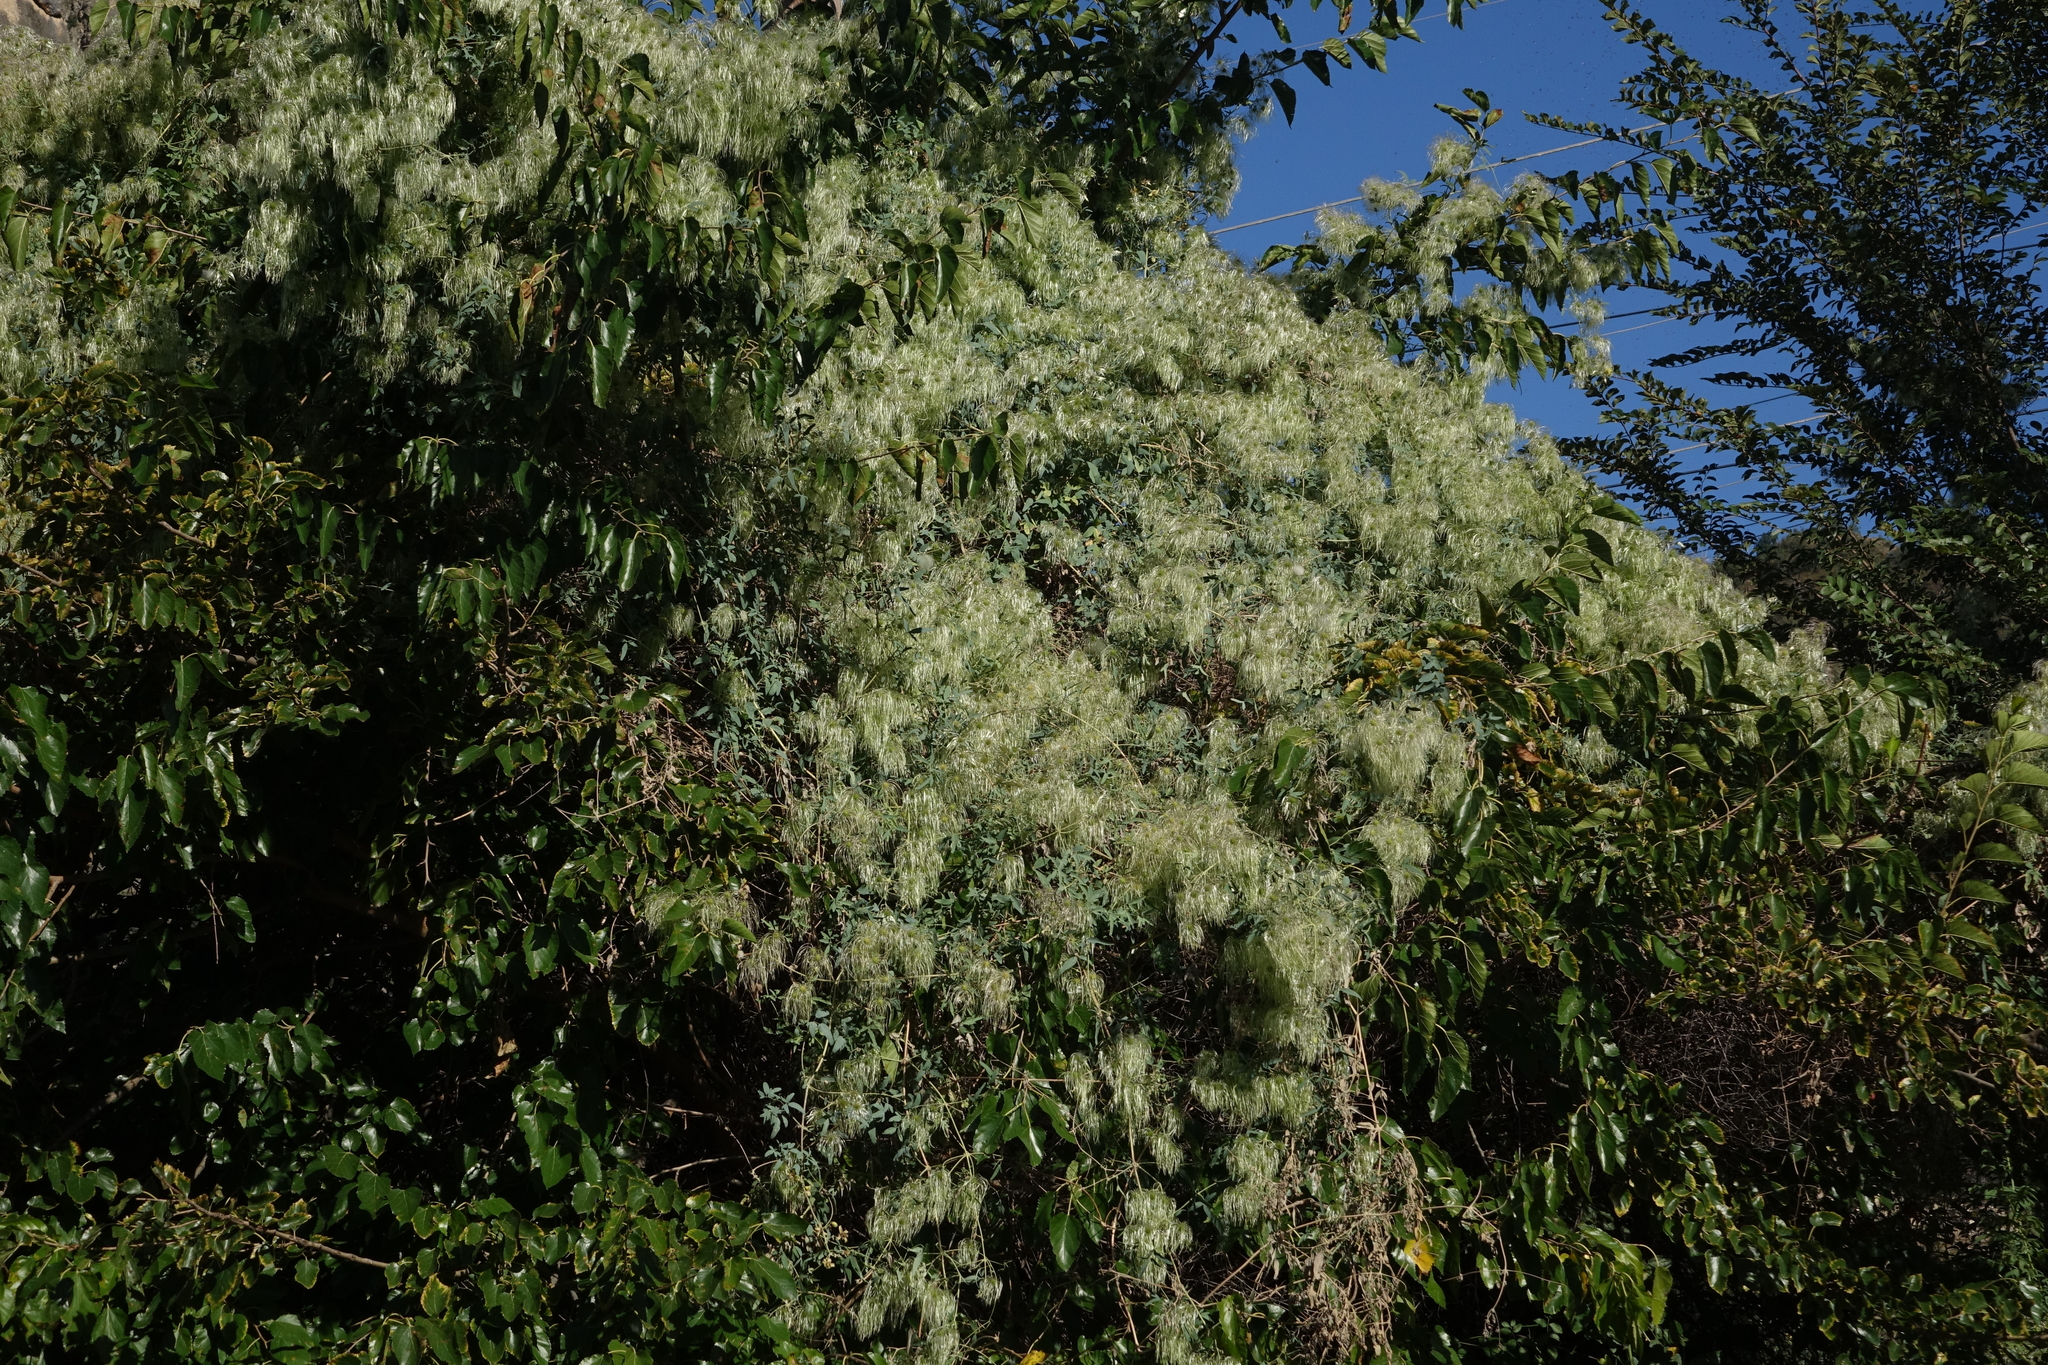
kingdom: Plantae
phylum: Tracheophyta
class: Magnoliopsida
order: Ranunculales
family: Ranunculaceae
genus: Clematis
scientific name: Clematis orientalis
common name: Oriental virgin's-bower
